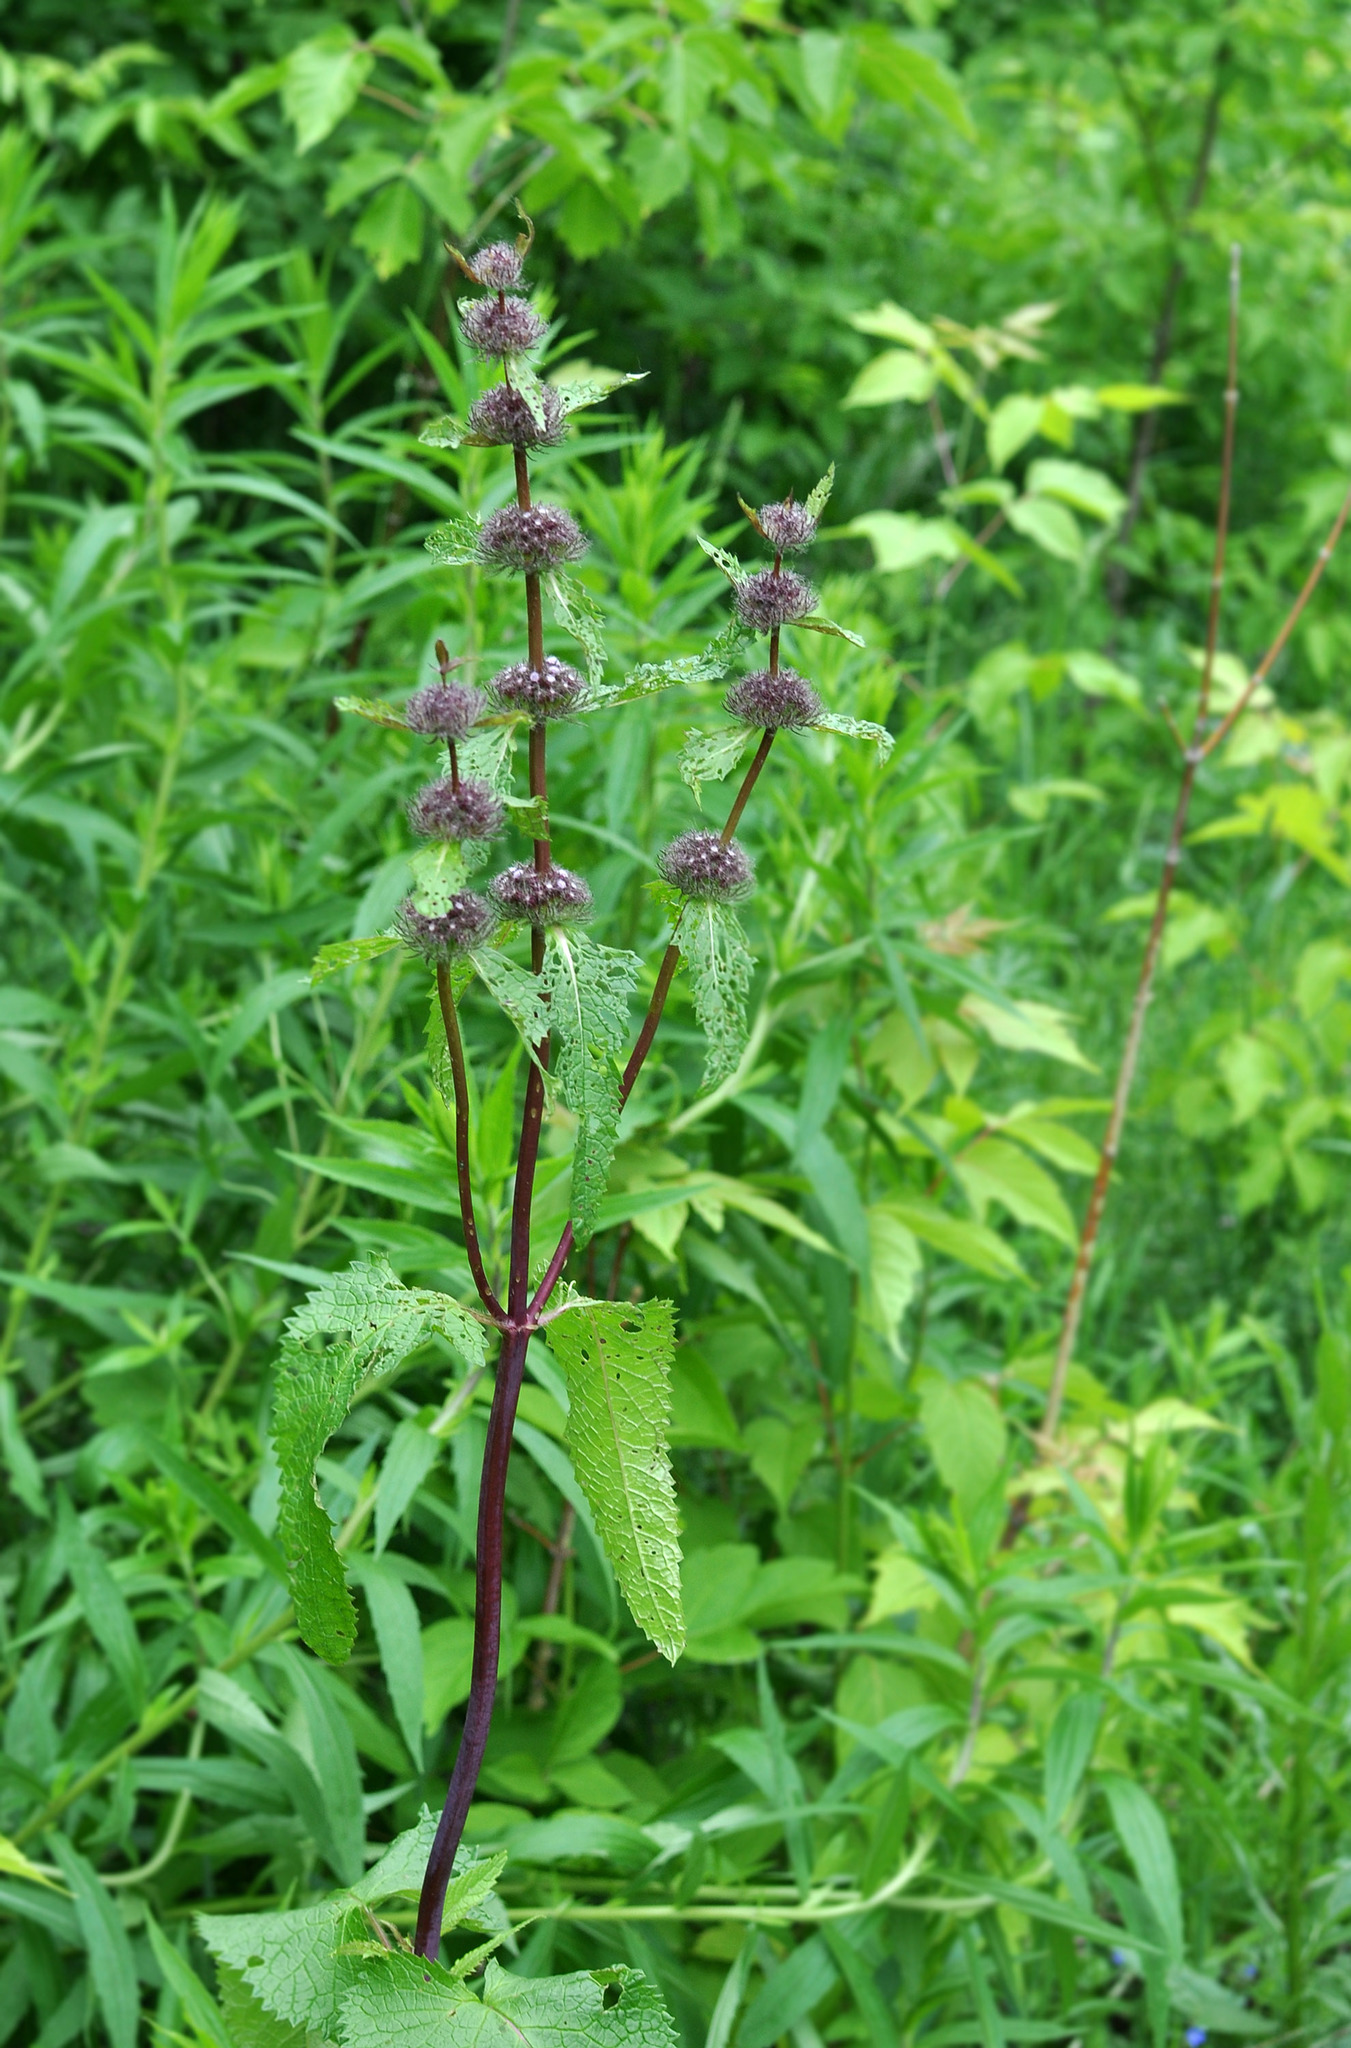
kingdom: Plantae
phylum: Tracheophyta
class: Magnoliopsida
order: Lamiales
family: Lamiaceae
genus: Phlomoides
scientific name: Phlomoides tuberosa
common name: Tuberous jerusalem sage
